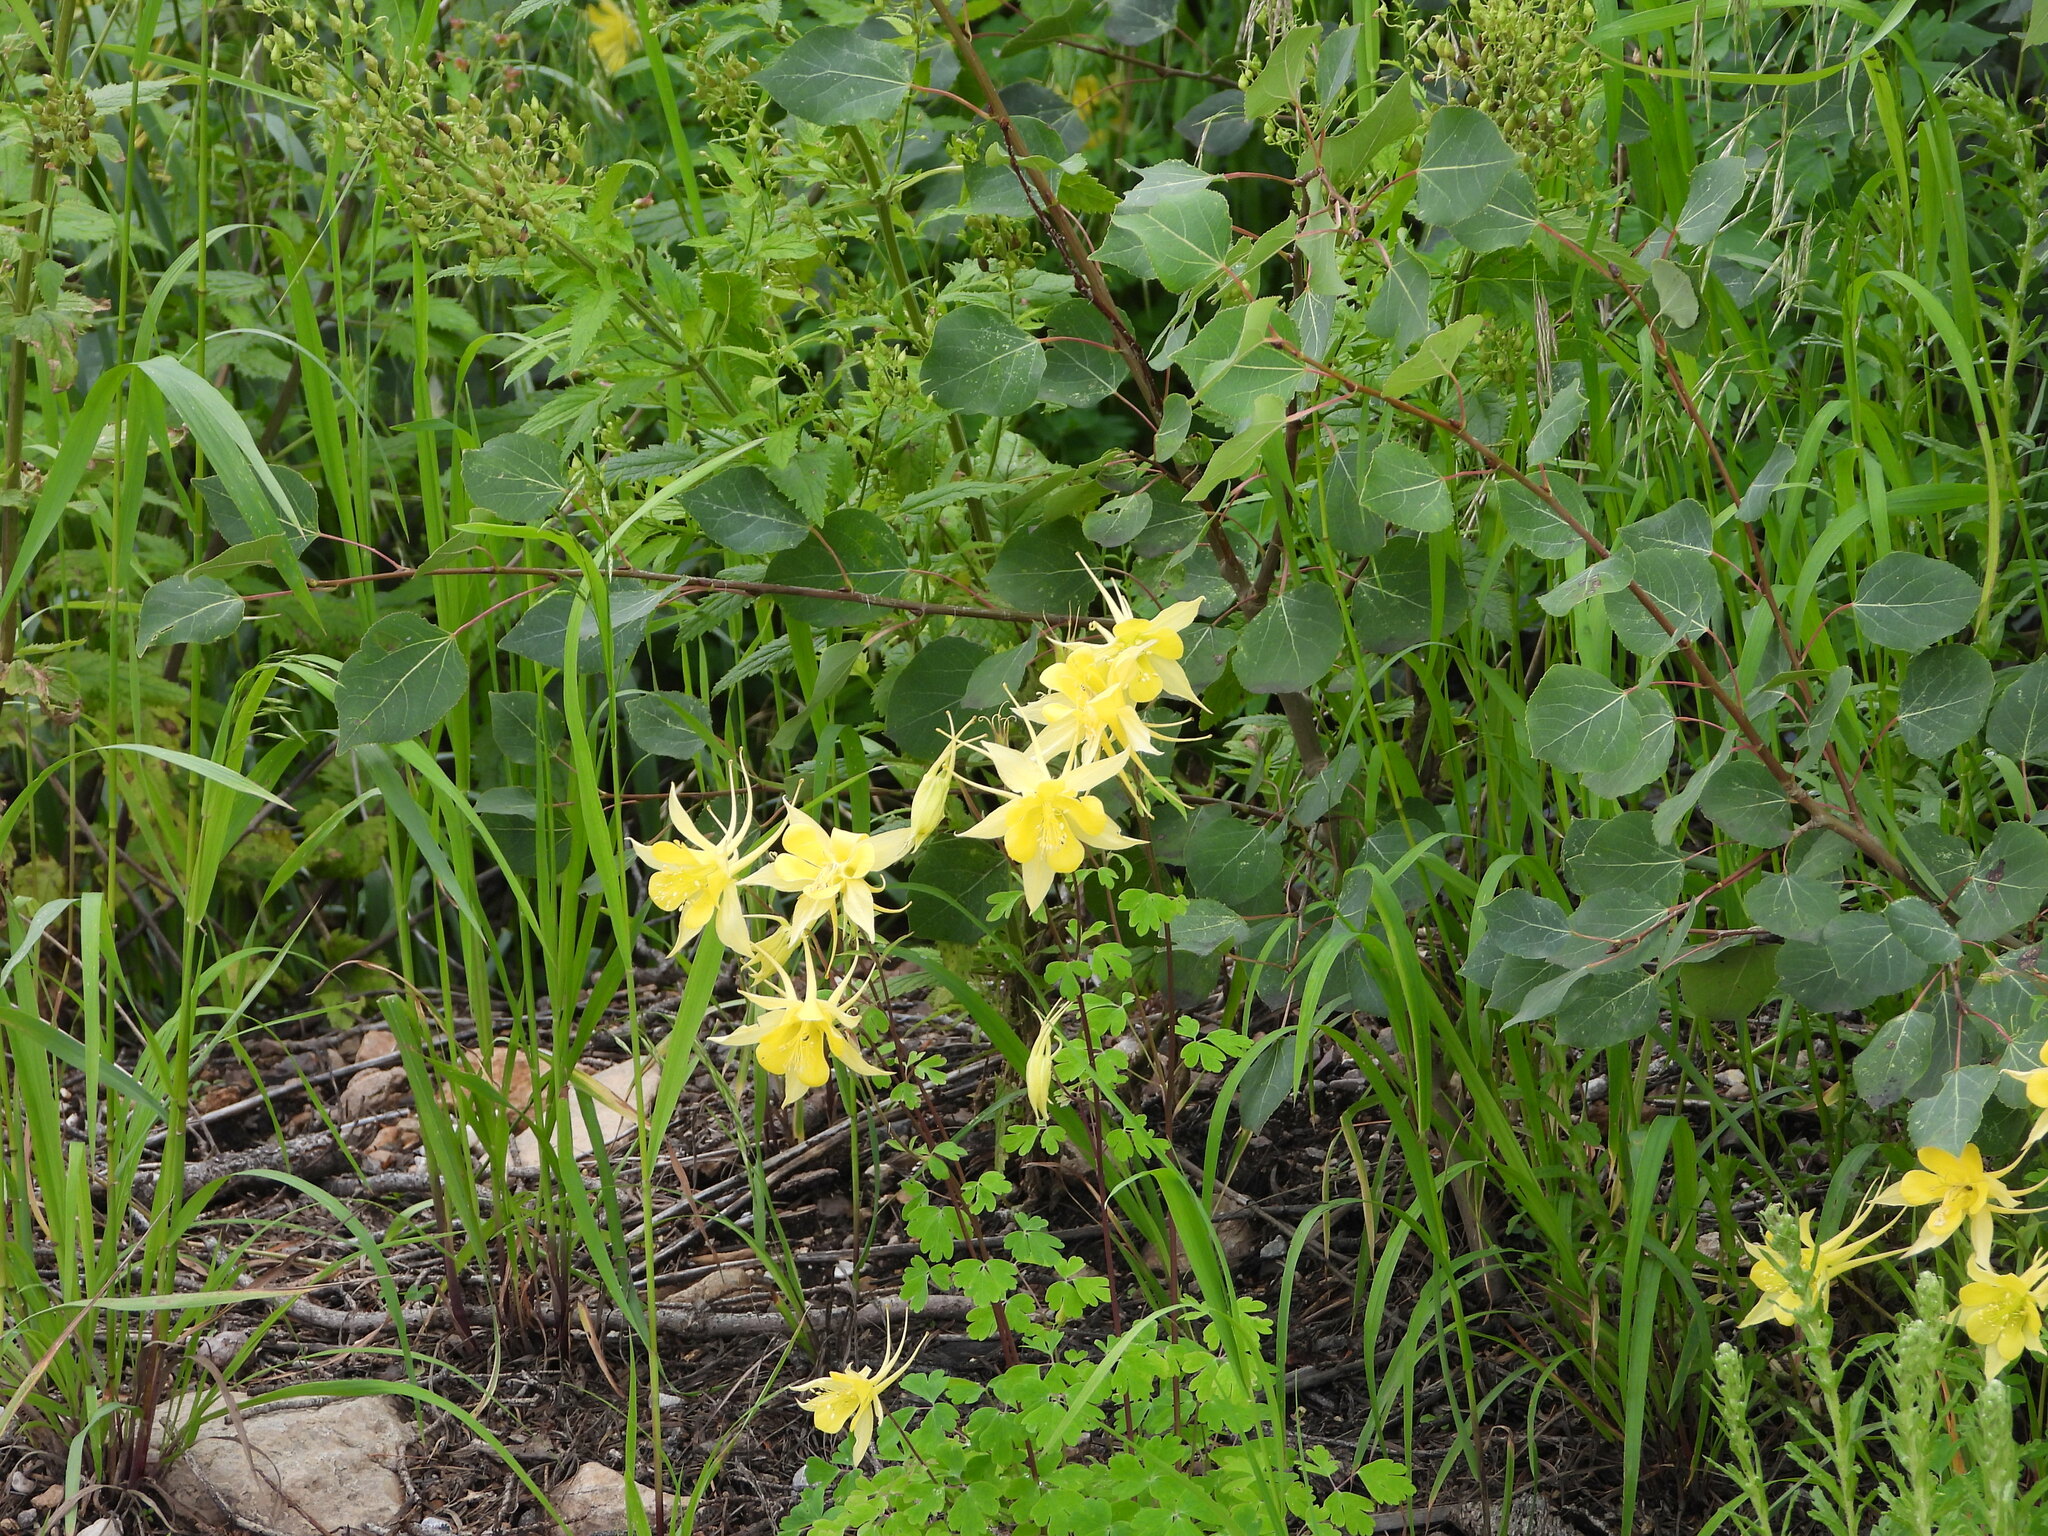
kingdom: Plantae
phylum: Tracheophyta
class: Magnoliopsida
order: Ranunculales
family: Ranunculaceae
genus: Aquilegia
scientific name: Aquilegia chrysantha
